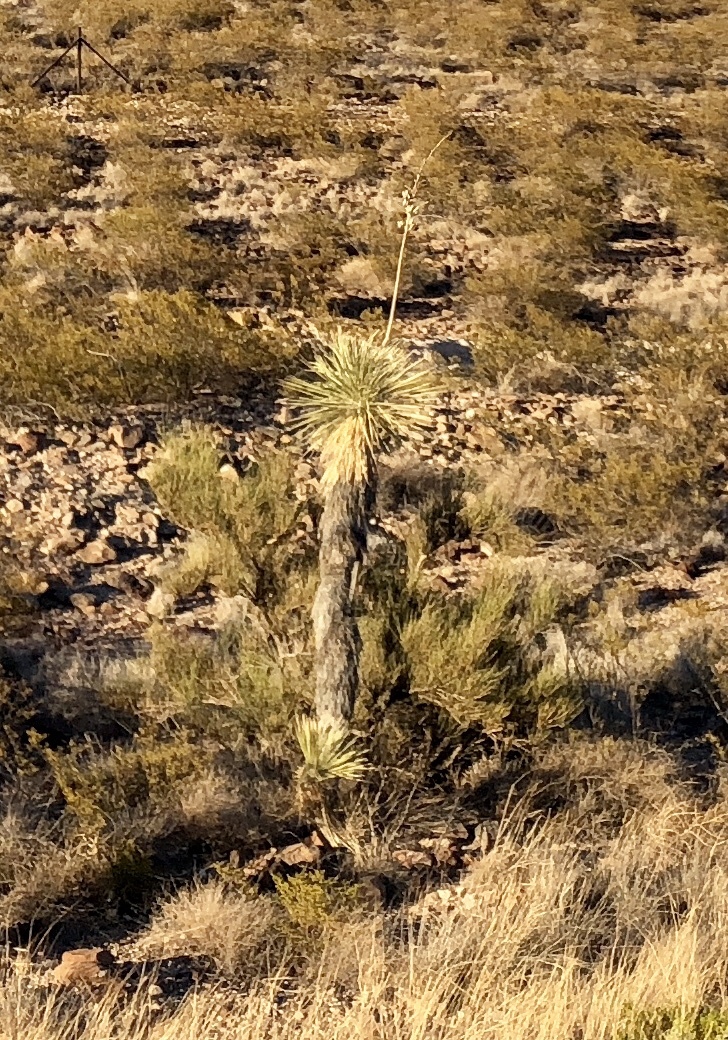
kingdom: Plantae
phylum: Tracheophyta
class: Liliopsida
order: Asparagales
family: Asparagaceae
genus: Yucca
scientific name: Yucca elata
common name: Palmella
